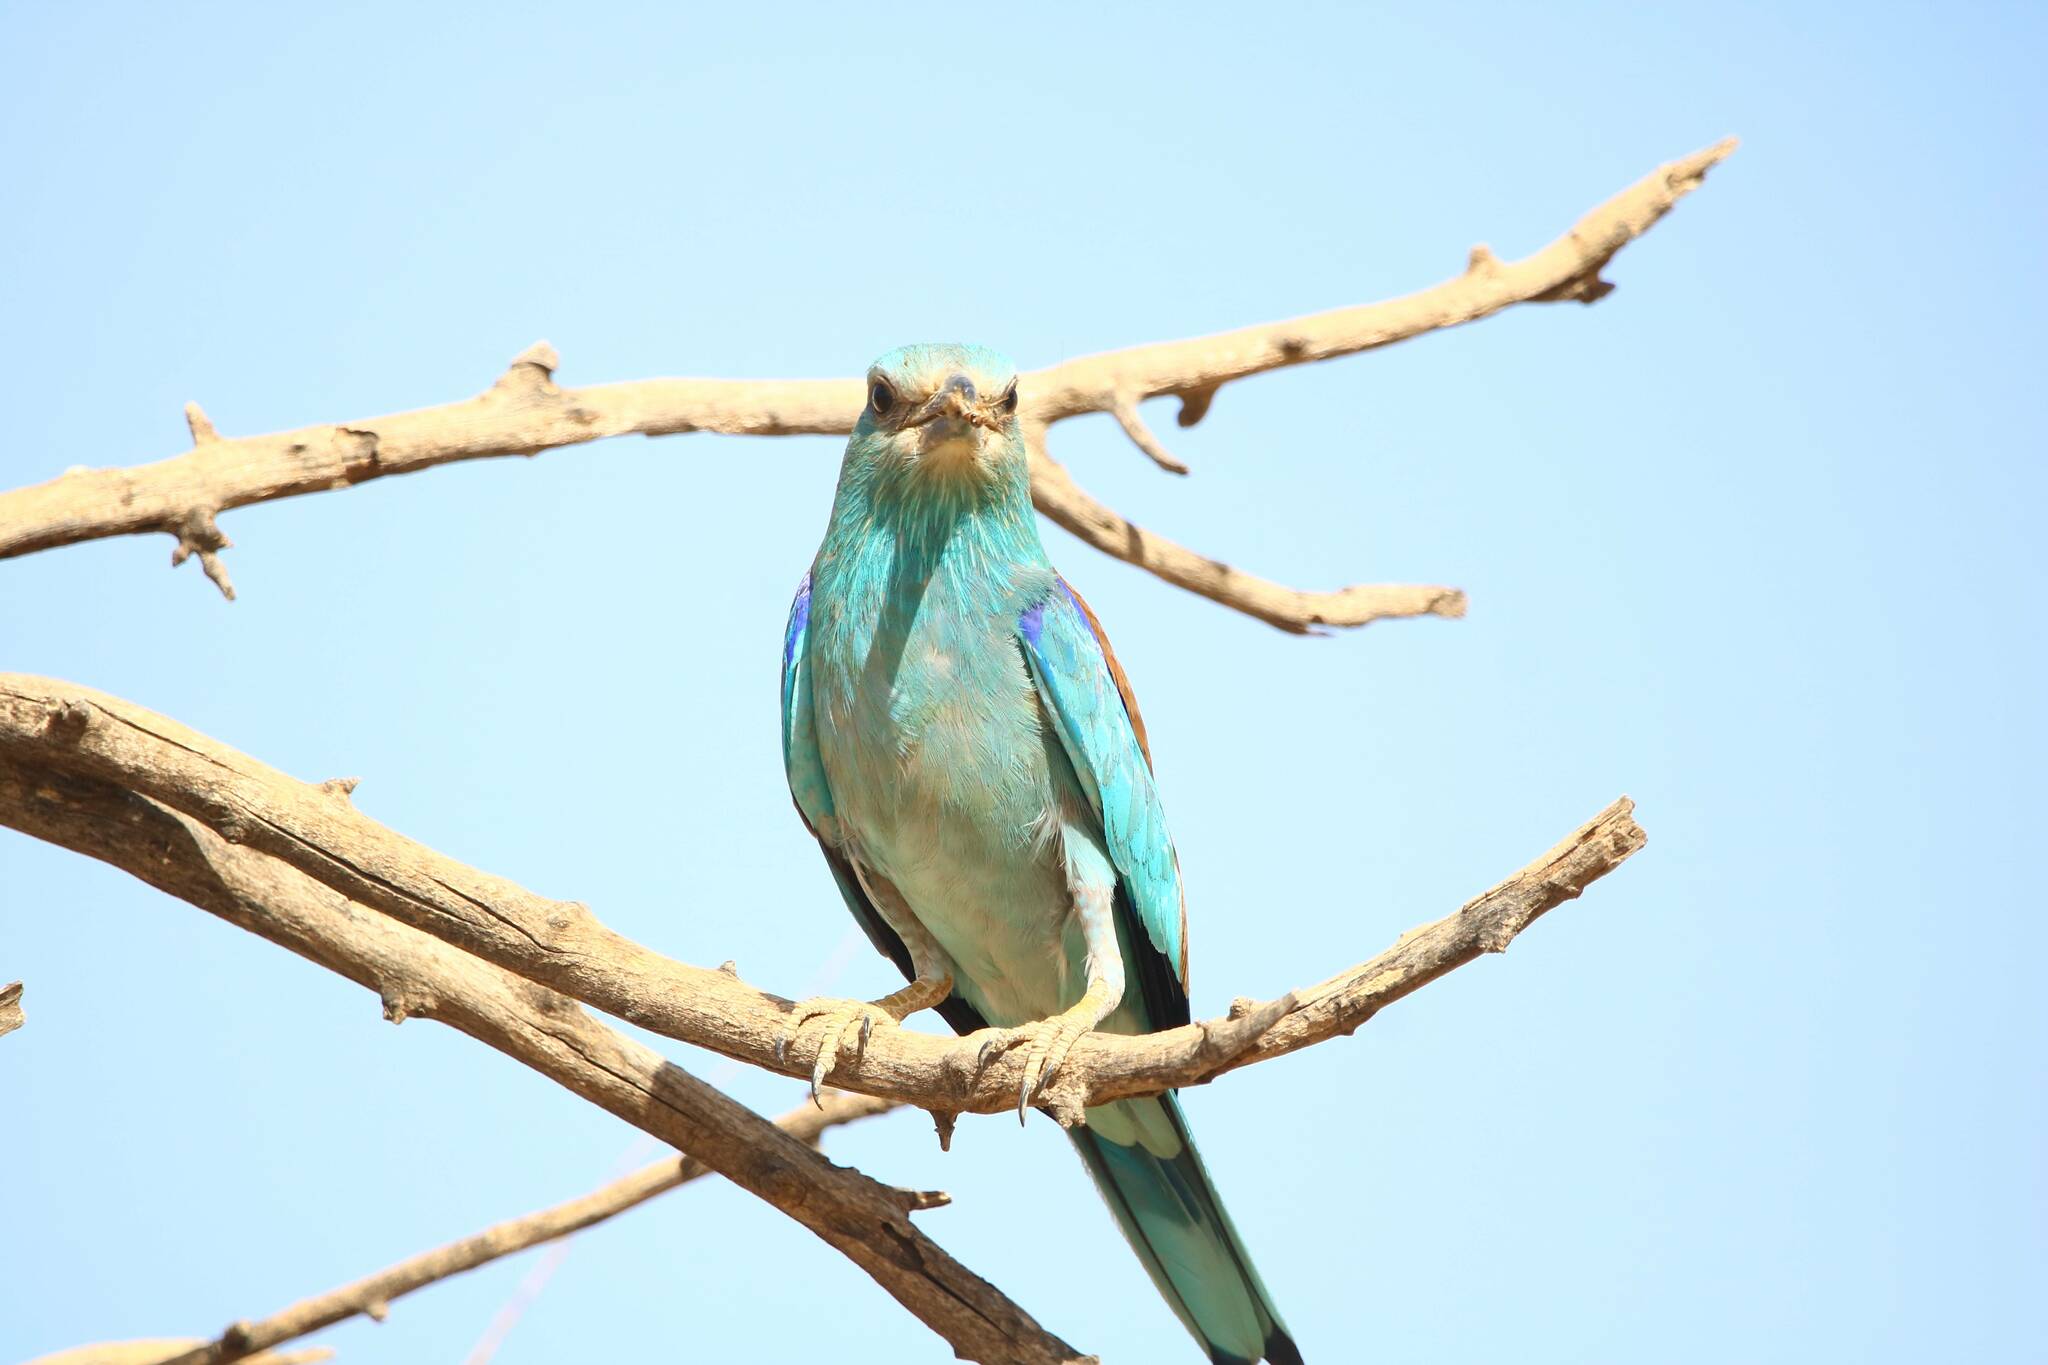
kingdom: Animalia
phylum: Chordata
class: Aves
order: Coraciiformes
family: Coraciidae
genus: Coracias
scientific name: Coracias garrulus
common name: European roller
